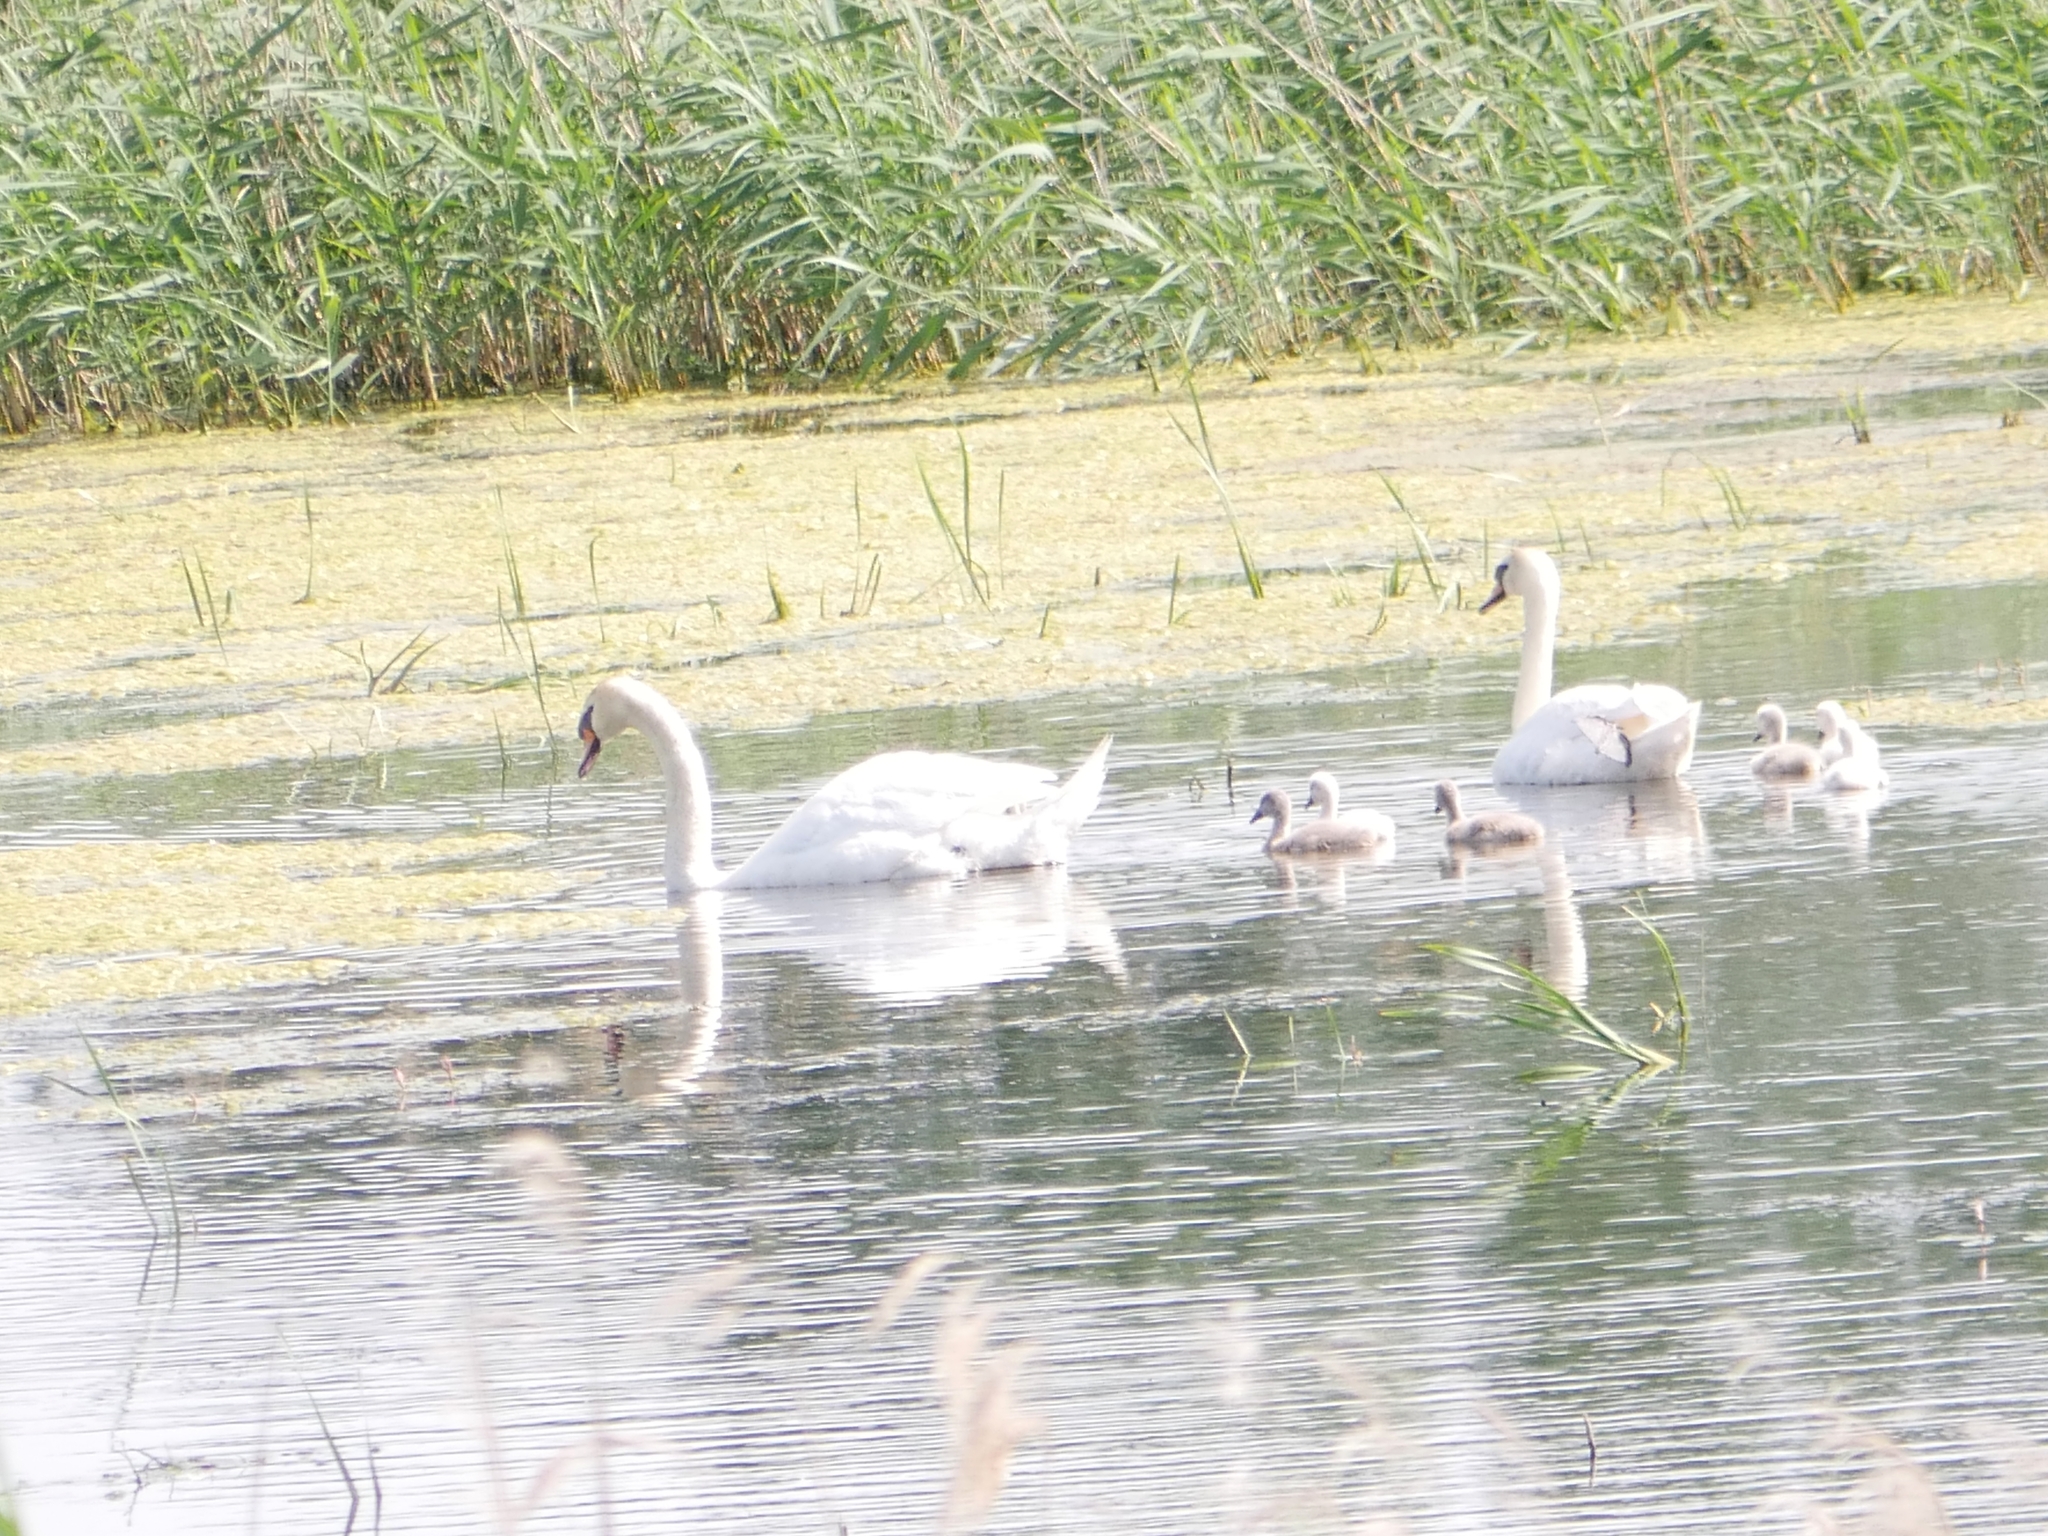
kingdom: Animalia
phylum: Chordata
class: Aves
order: Anseriformes
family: Anatidae
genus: Cygnus
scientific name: Cygnus olor
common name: Mute swan
